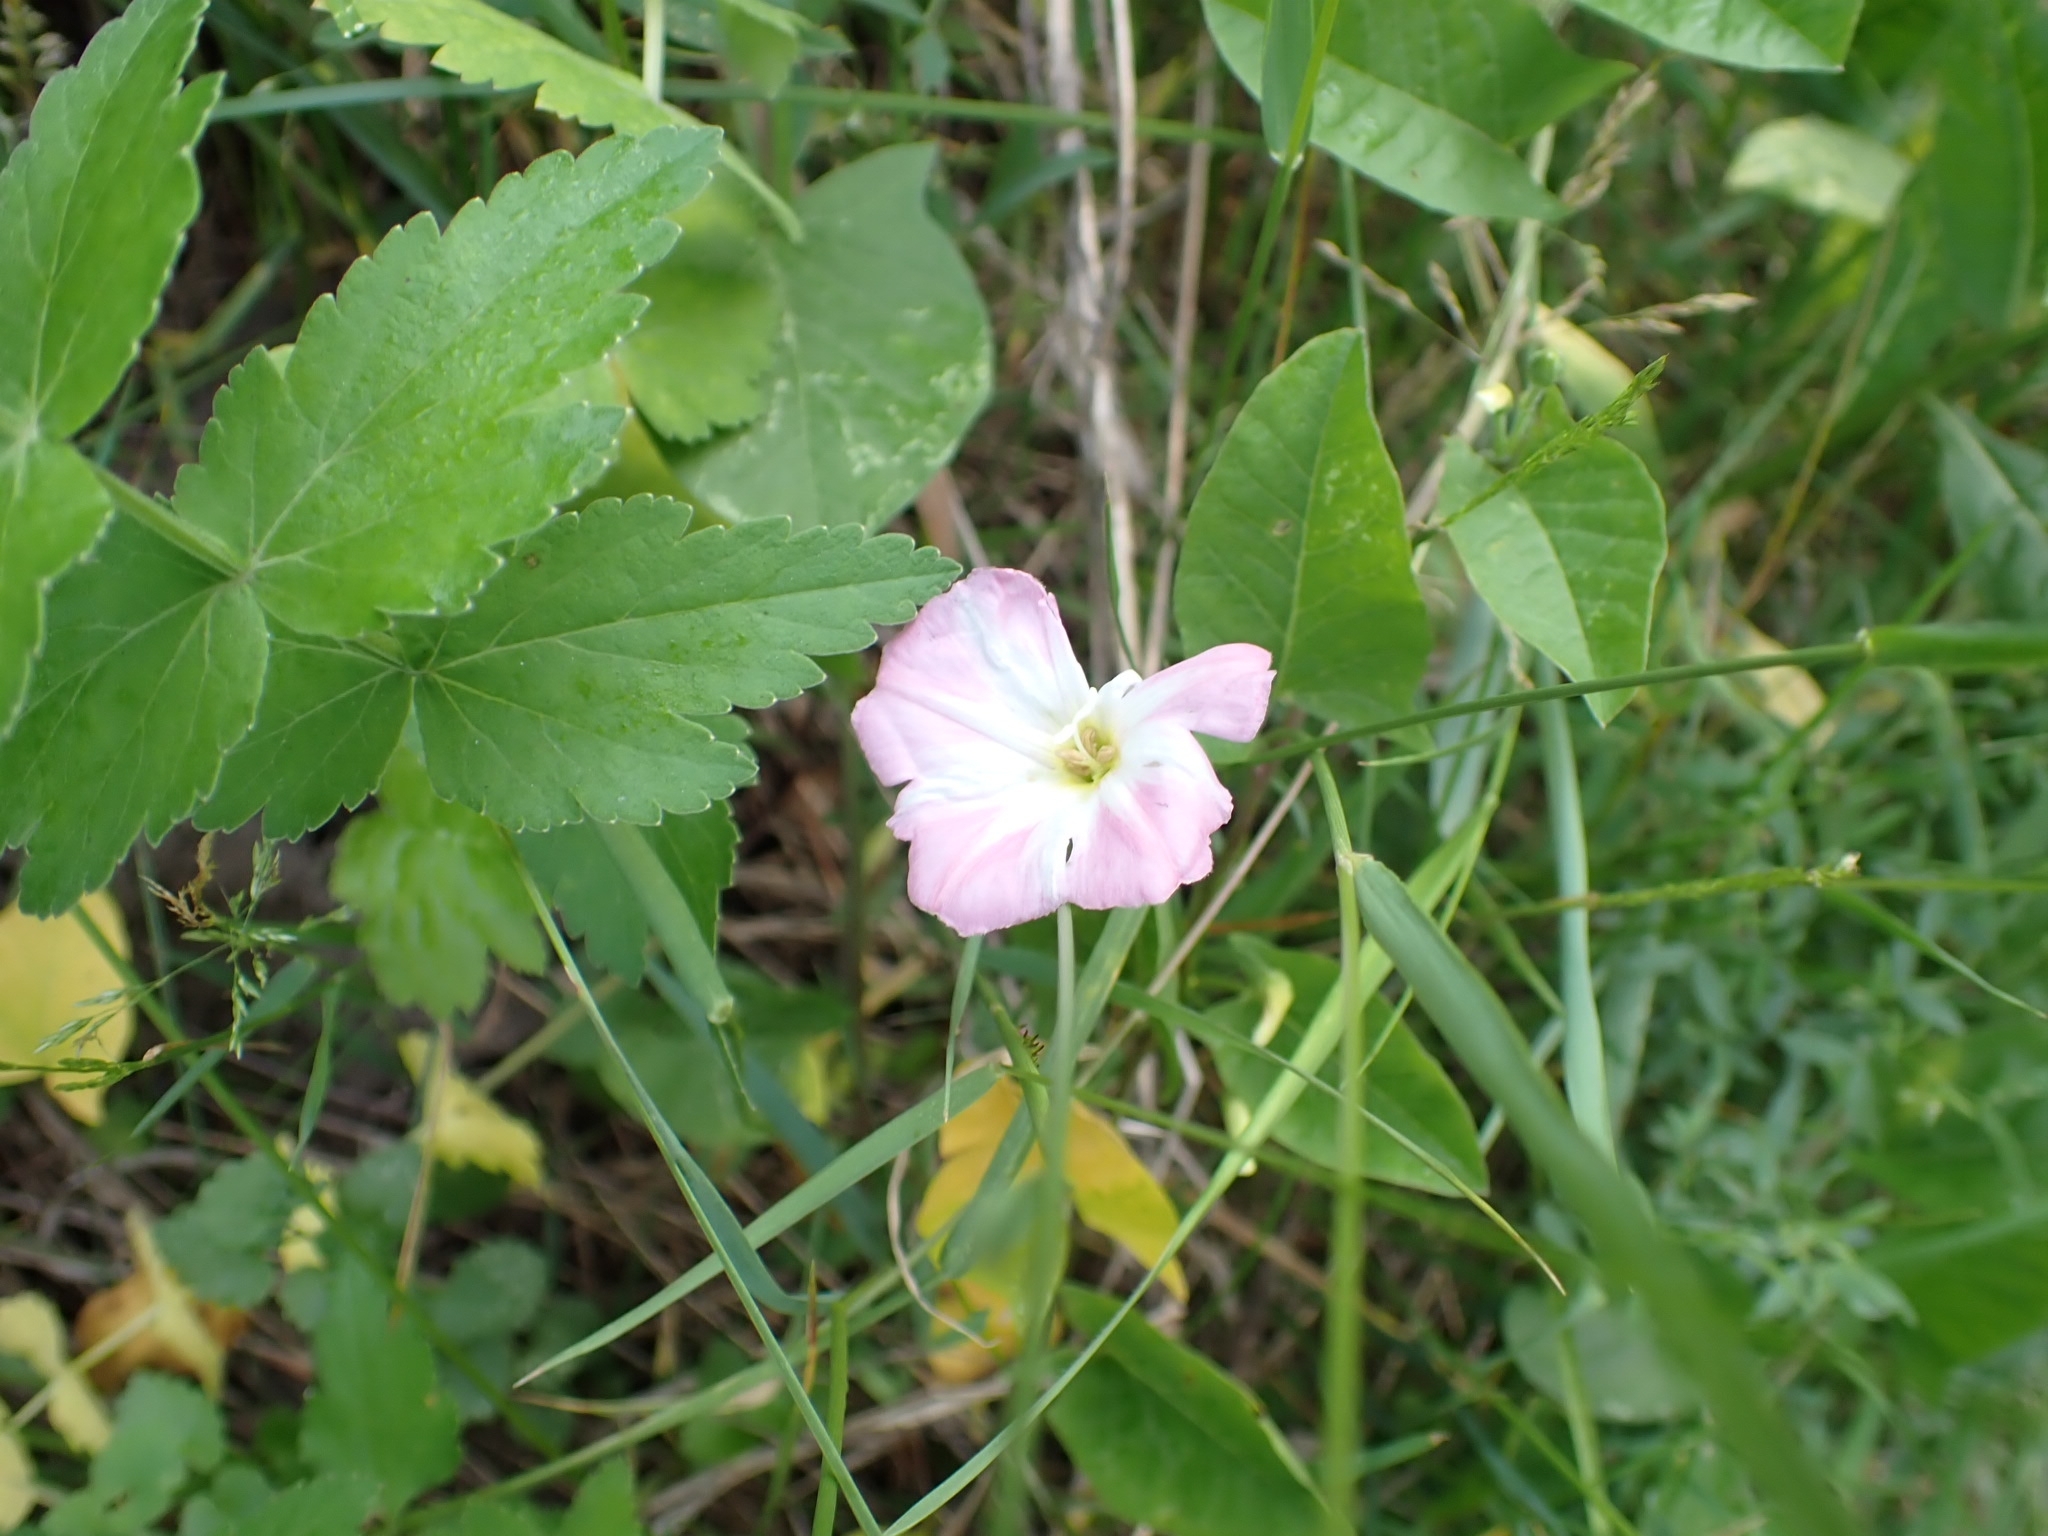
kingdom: Plantae
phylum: Tracheophyta
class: Magnoliopsida
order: Solanales
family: Convolvulaceae
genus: Convolvulus
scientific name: Convolvulus arvensis
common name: Field bindweed
